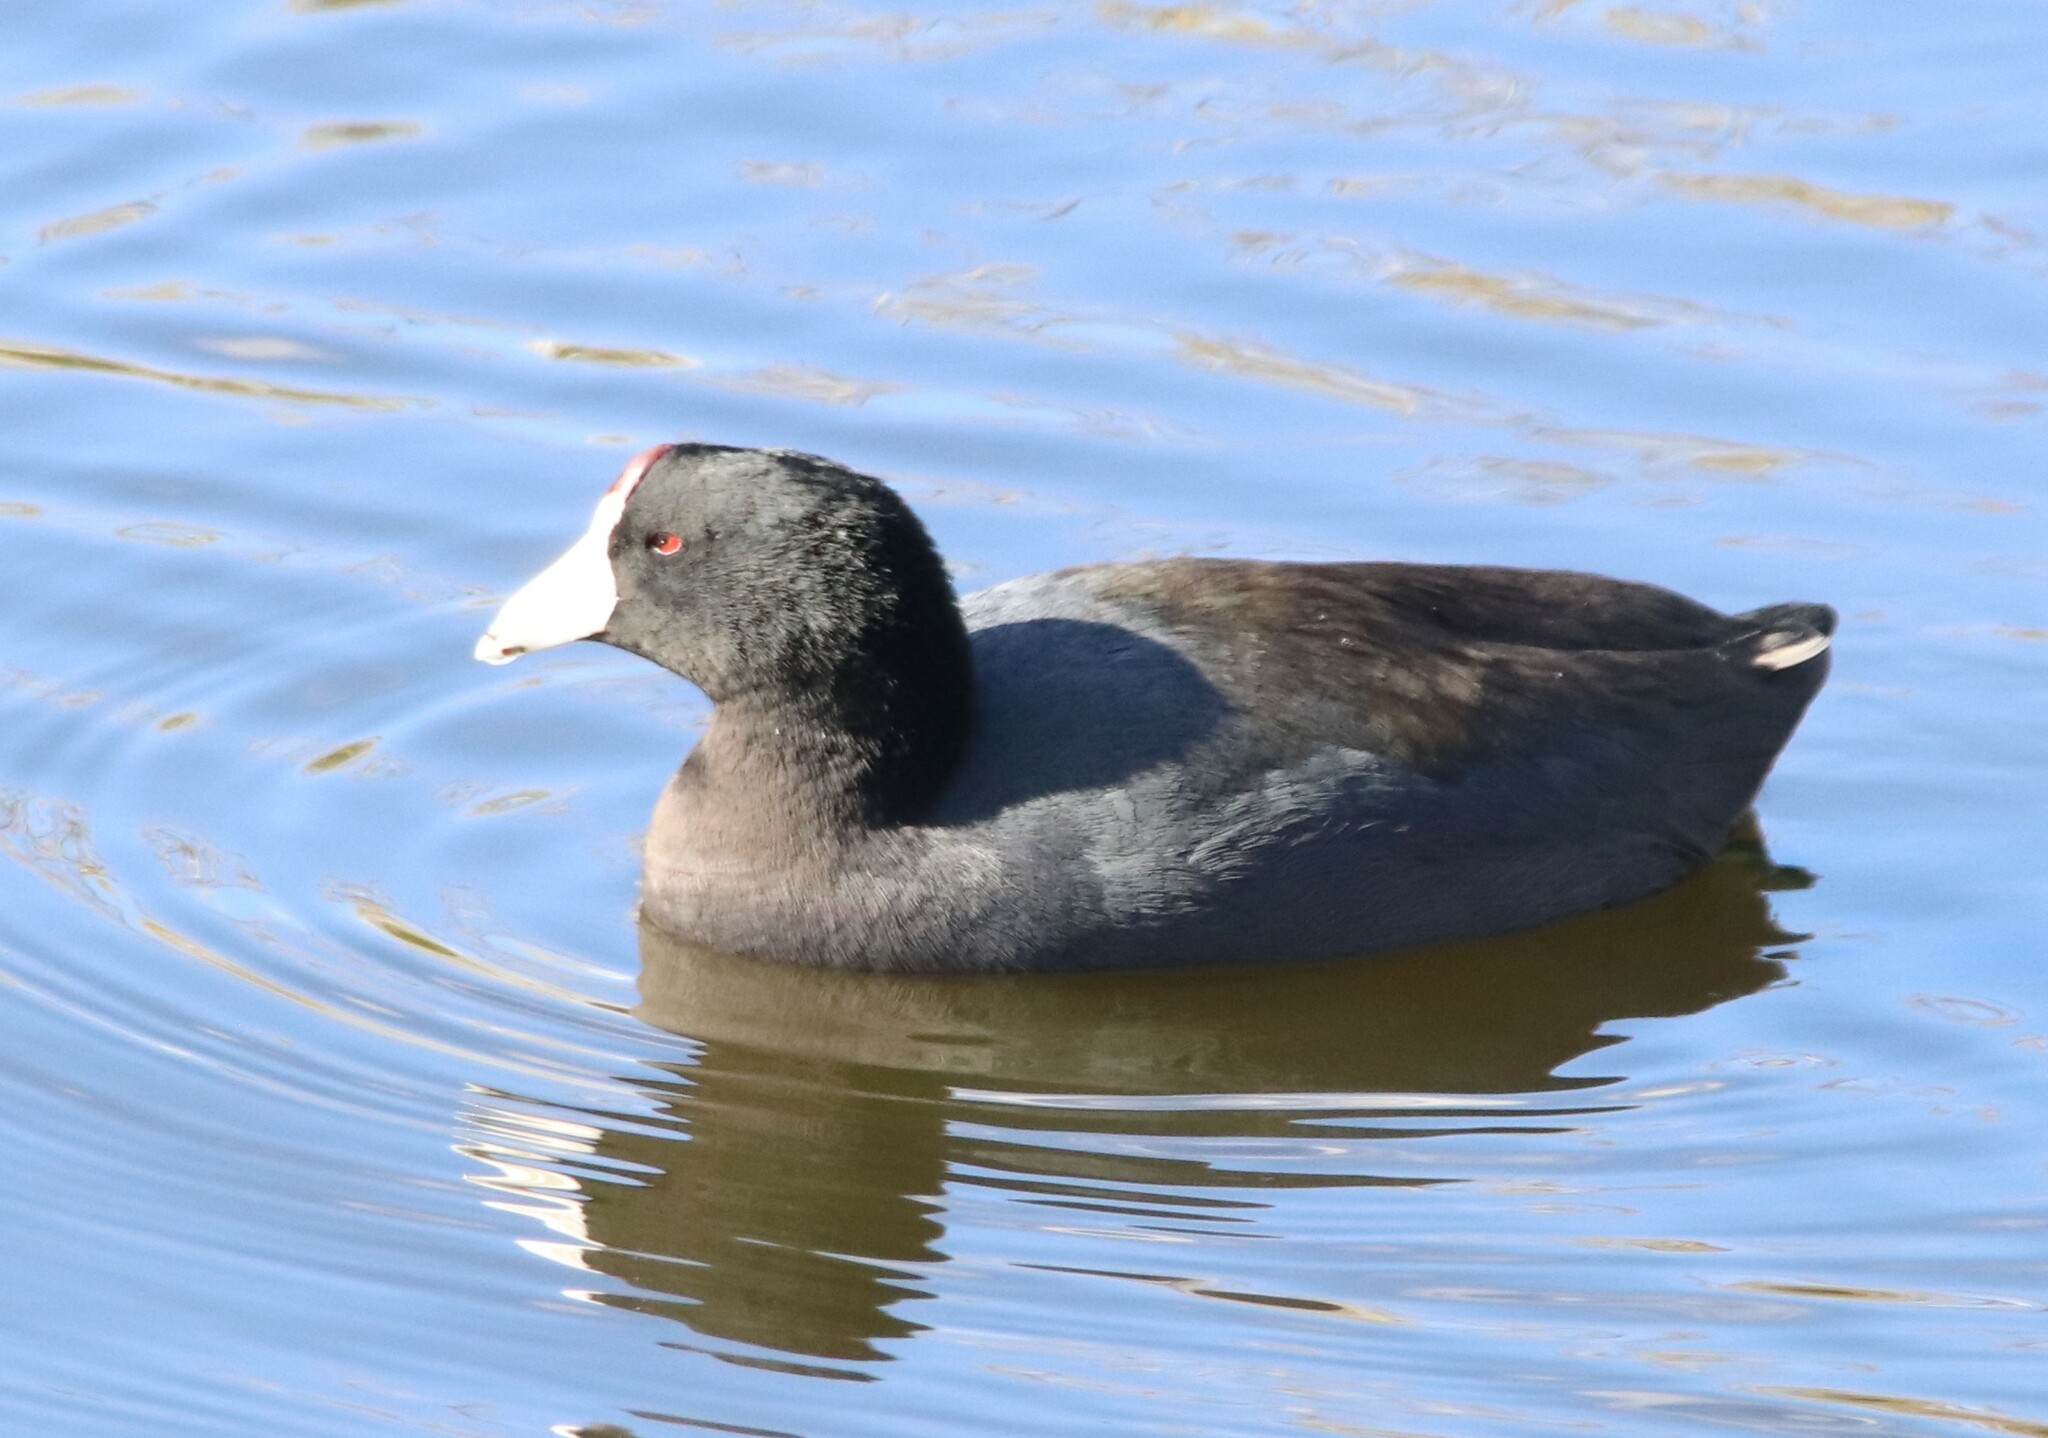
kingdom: Animalia
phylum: Chordata
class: Aves
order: Gruiformes
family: Rallidae
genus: Fulica
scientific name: Fulica americana
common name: American coot
